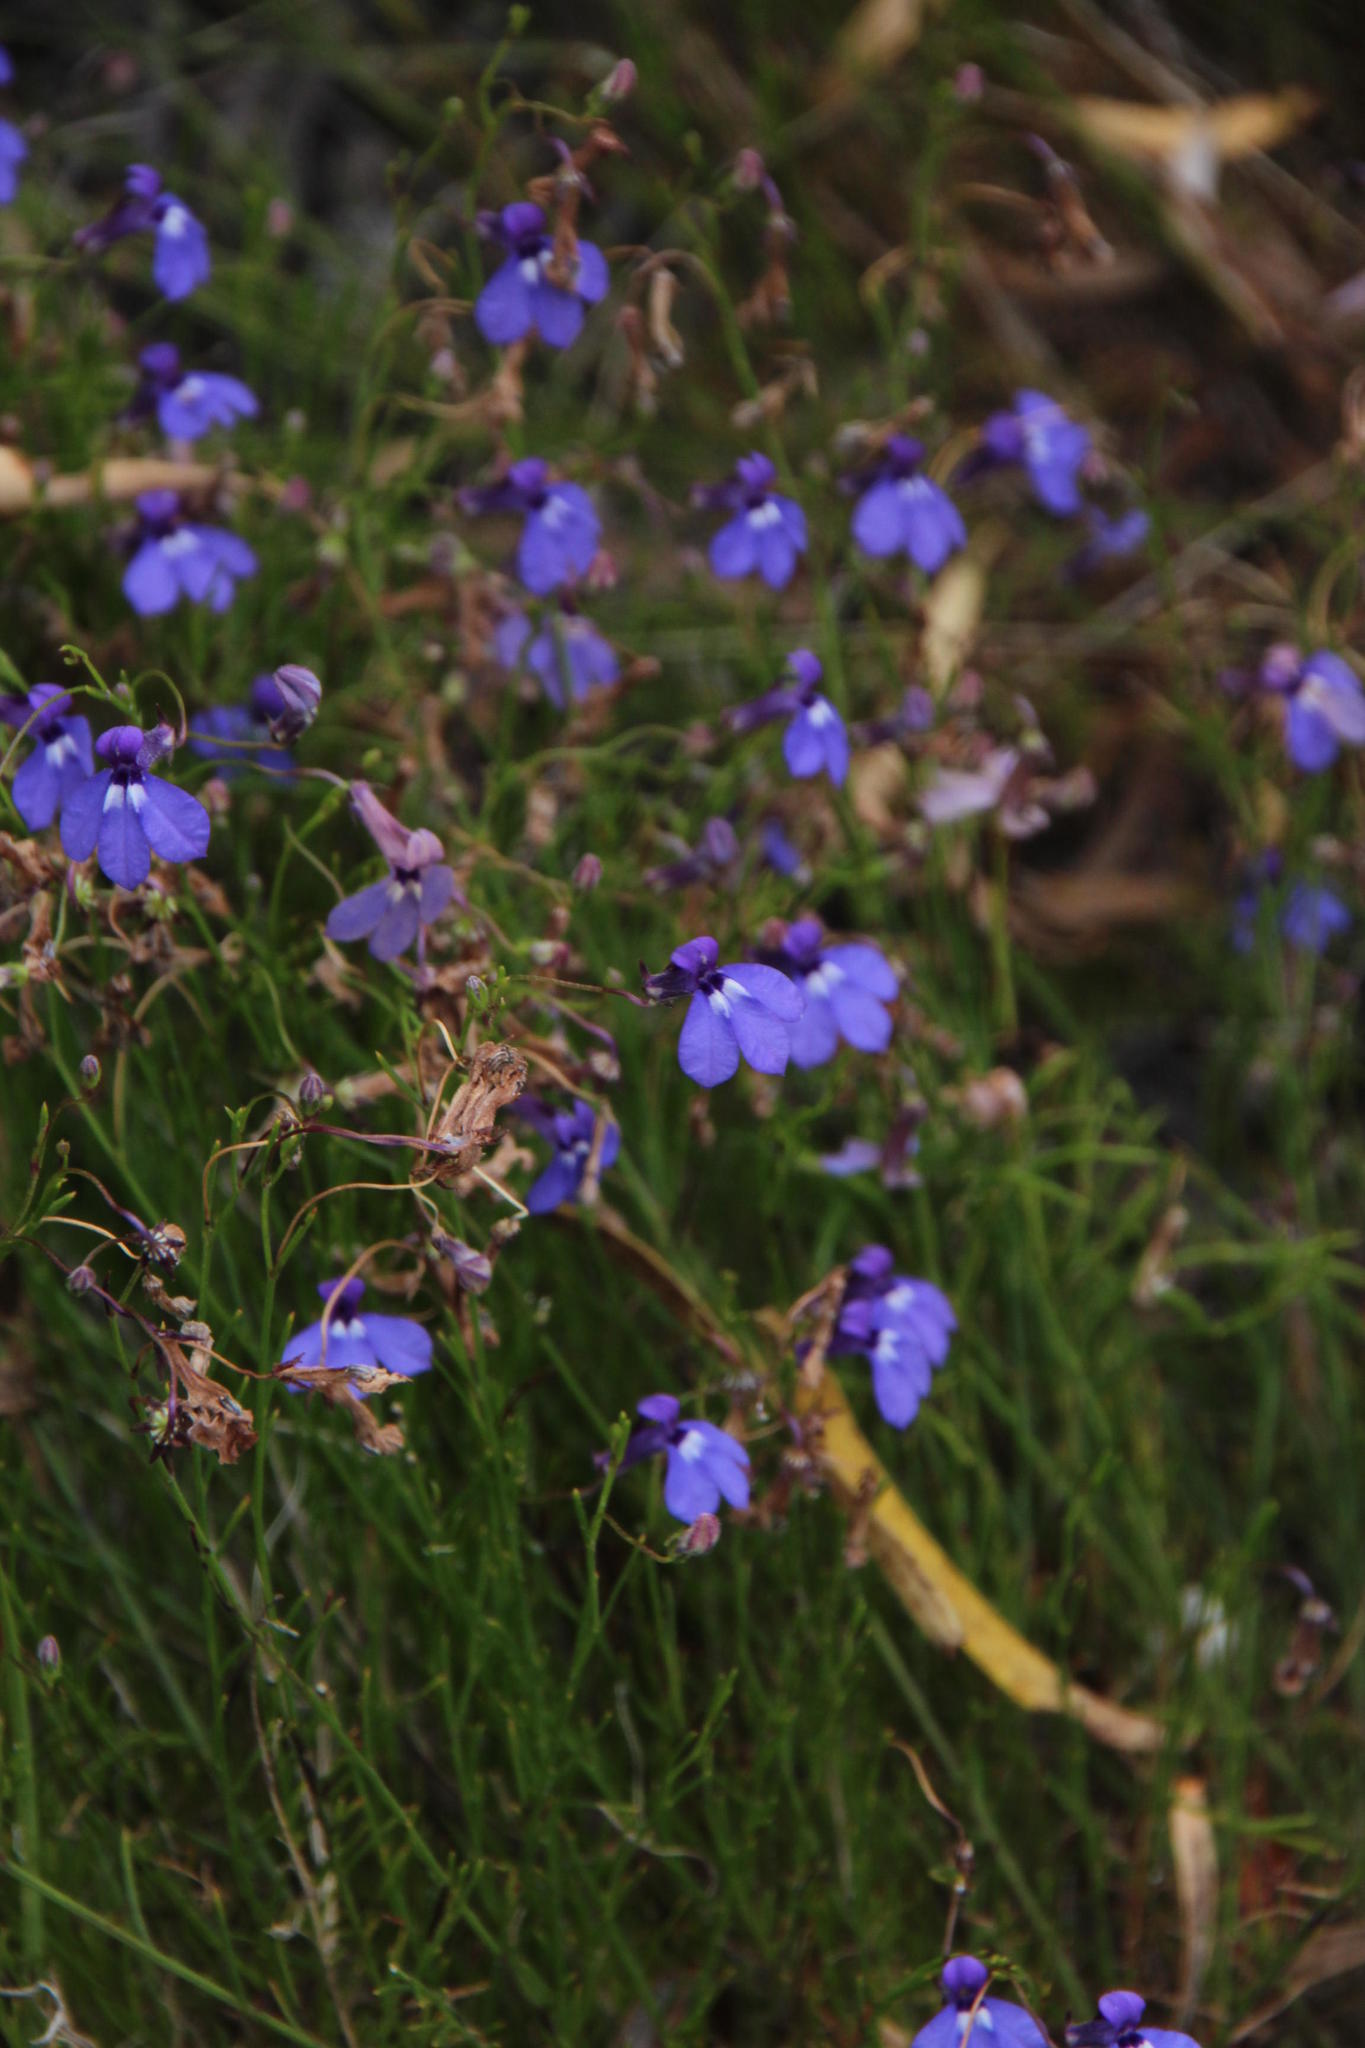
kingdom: Plantae
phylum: Tracheophyta
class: Magnoliopsida
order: Asterales
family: Campanulaceae
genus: Lobelia
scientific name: Lobelia setacea
